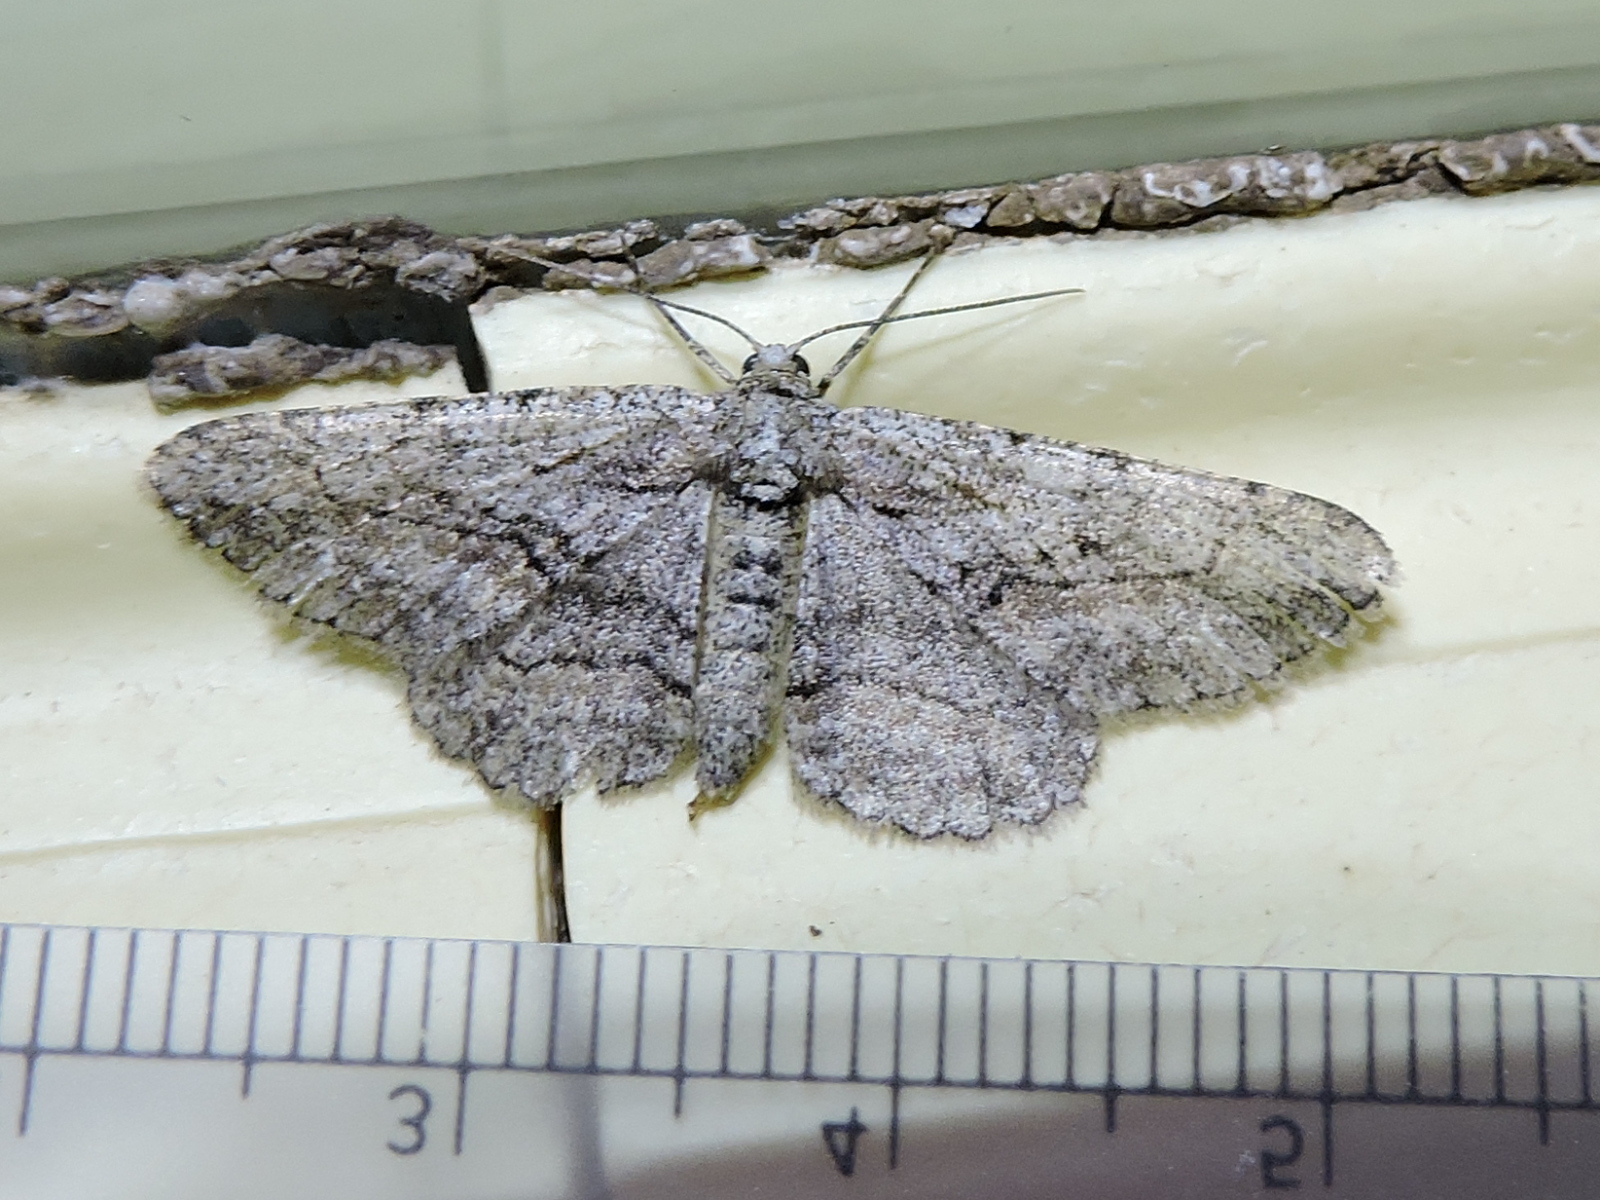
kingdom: Animalia
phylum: Arthropoda
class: Insecta
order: Lepidoptera
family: Geometridae
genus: Iridopsis
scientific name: Iridopsis defectaria
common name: Brown-shaded gray
